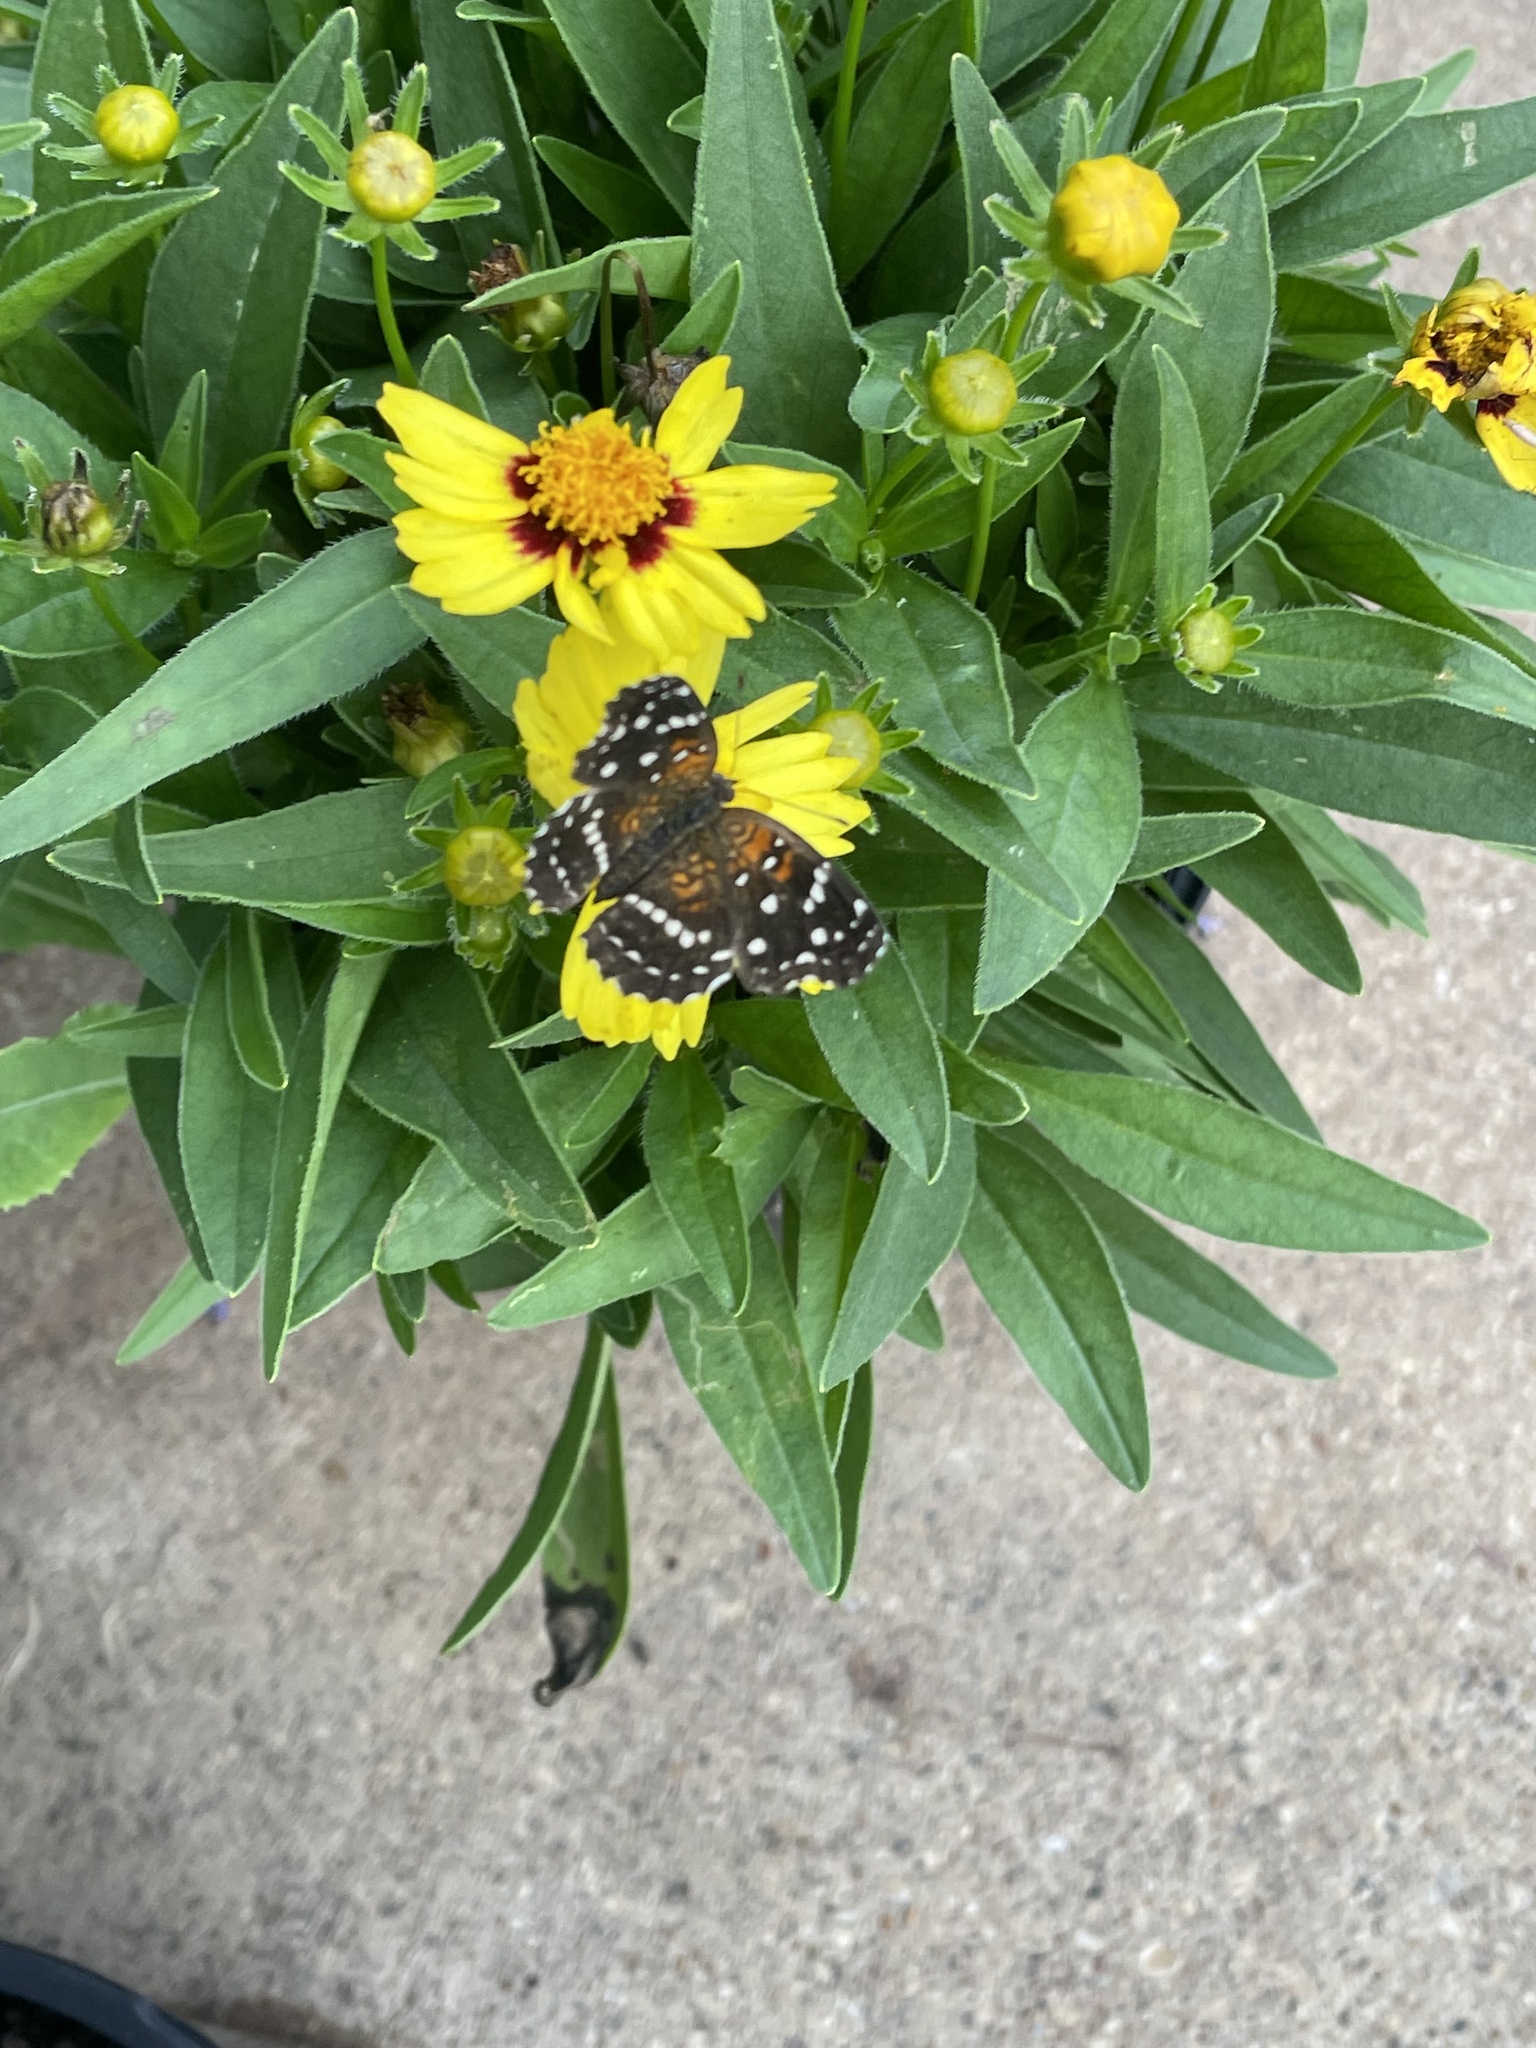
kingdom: Animalia
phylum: Arthropoda
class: Insecta
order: Lepidoptera
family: Nymphalidae
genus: Anthanassa
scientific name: Anthanassa texana
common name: Texan crescent
